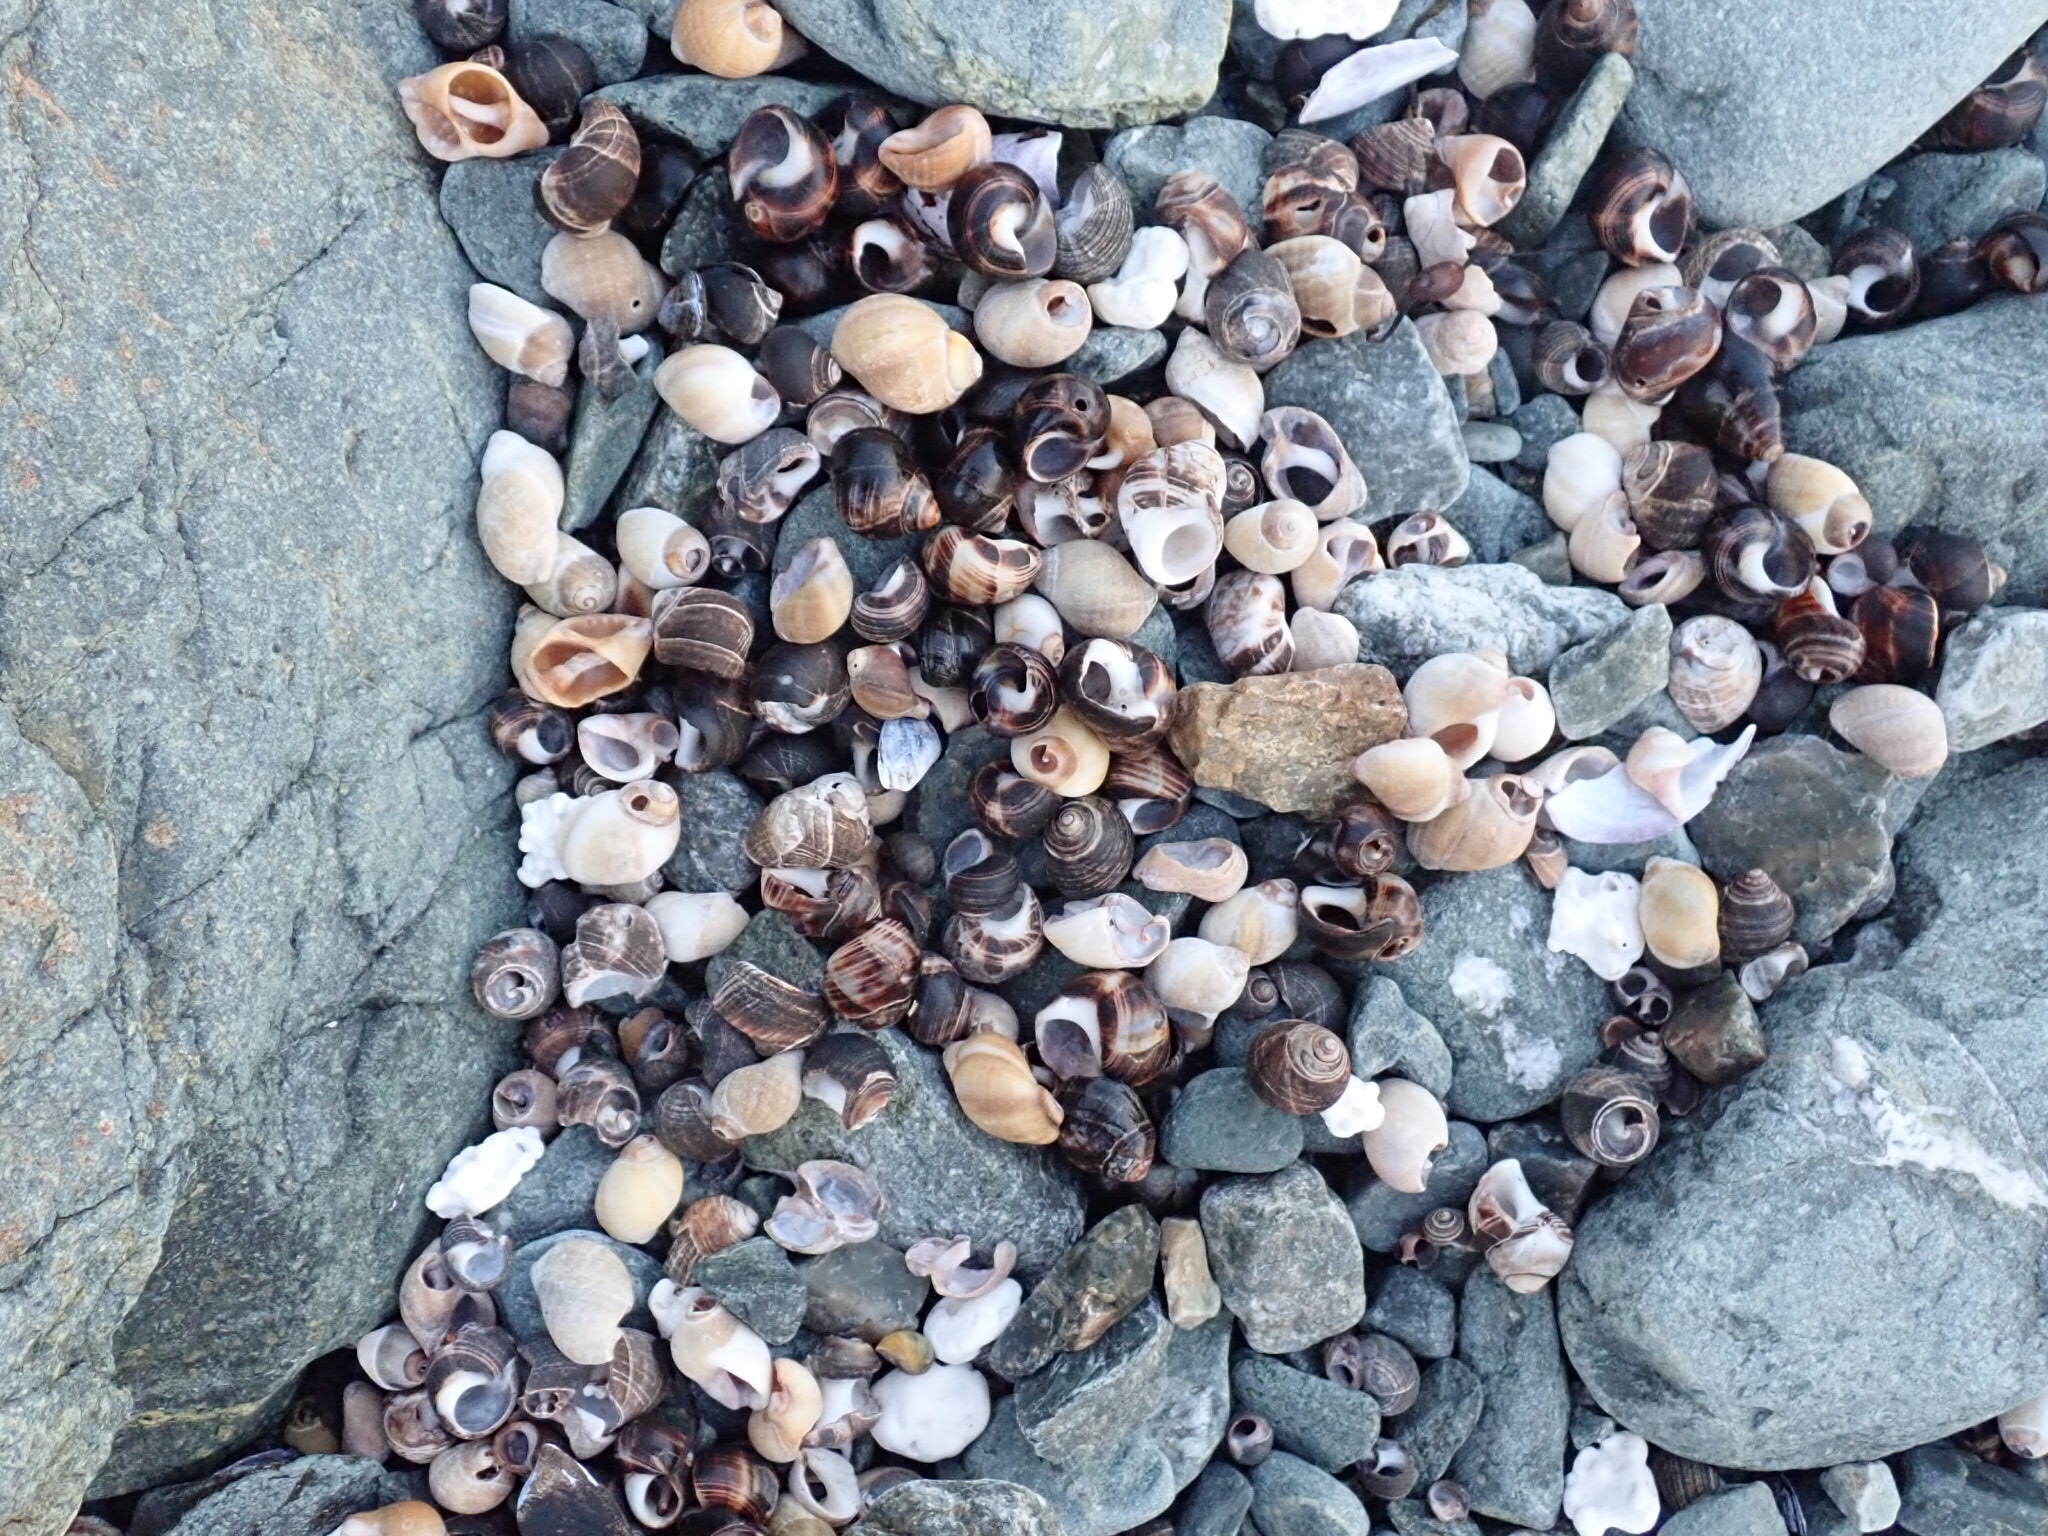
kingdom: Animalia
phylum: Mollusca
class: Gastropoda
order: Littorinimorpha
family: Littorinidae
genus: Littorina
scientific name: Littorina littorea
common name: Common periwinkle
